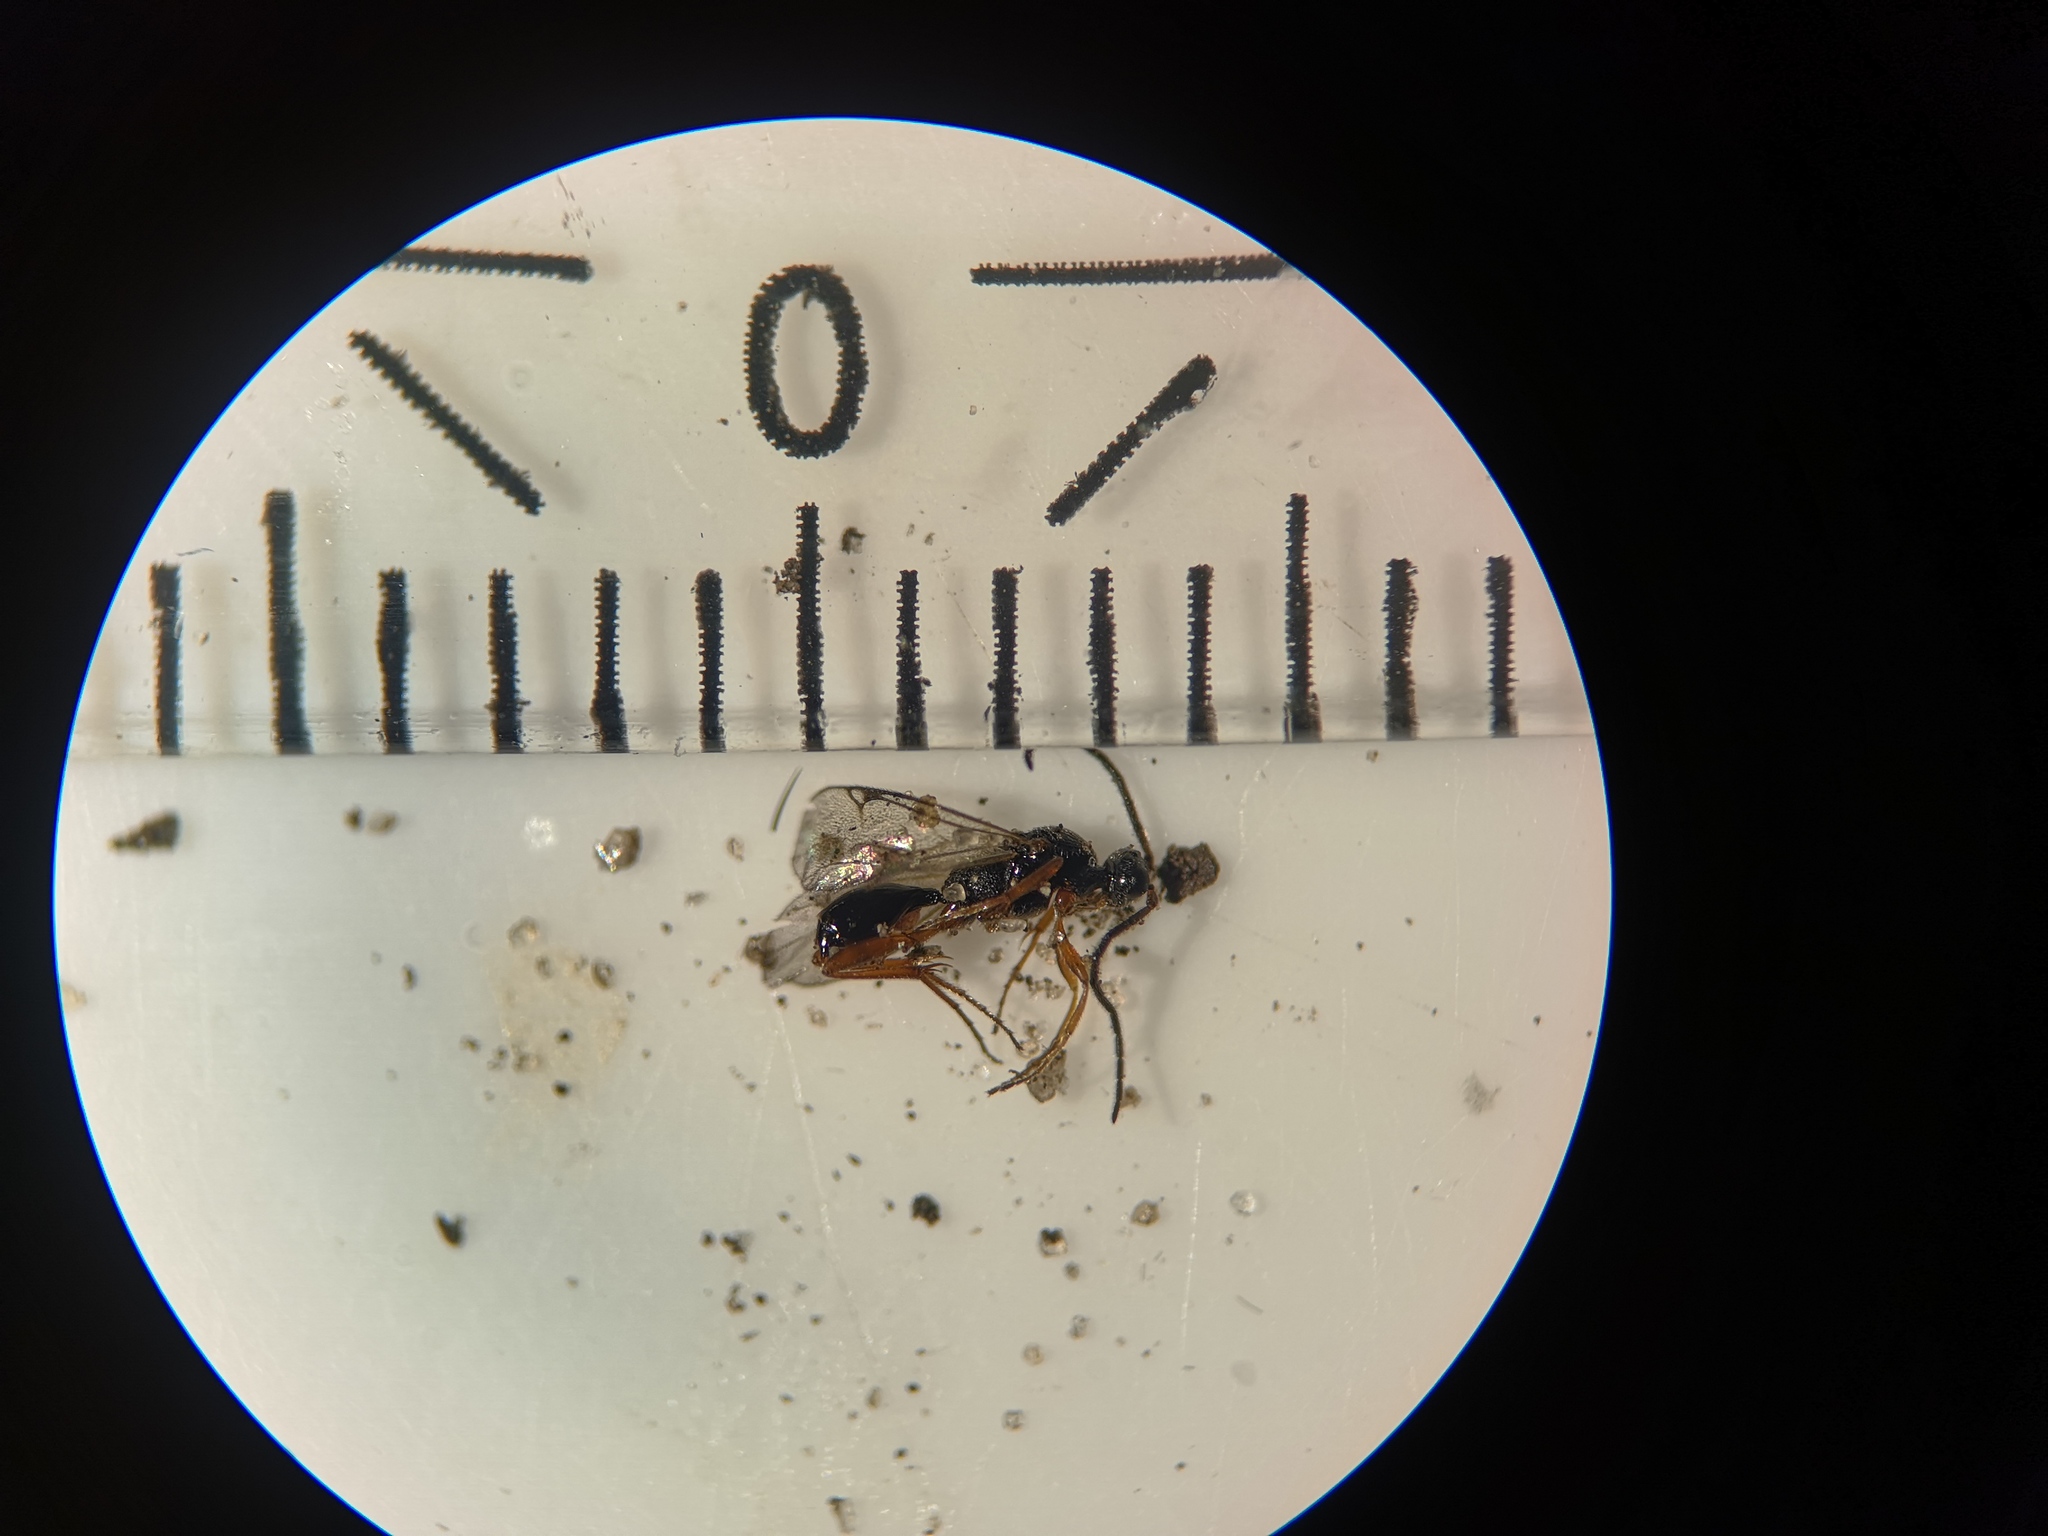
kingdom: Animalia
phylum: Arthropoda
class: Insecta
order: Hymenoptera
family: Proctotrupidae
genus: Phaneroserphus
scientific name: Phaneroserphus calcar
